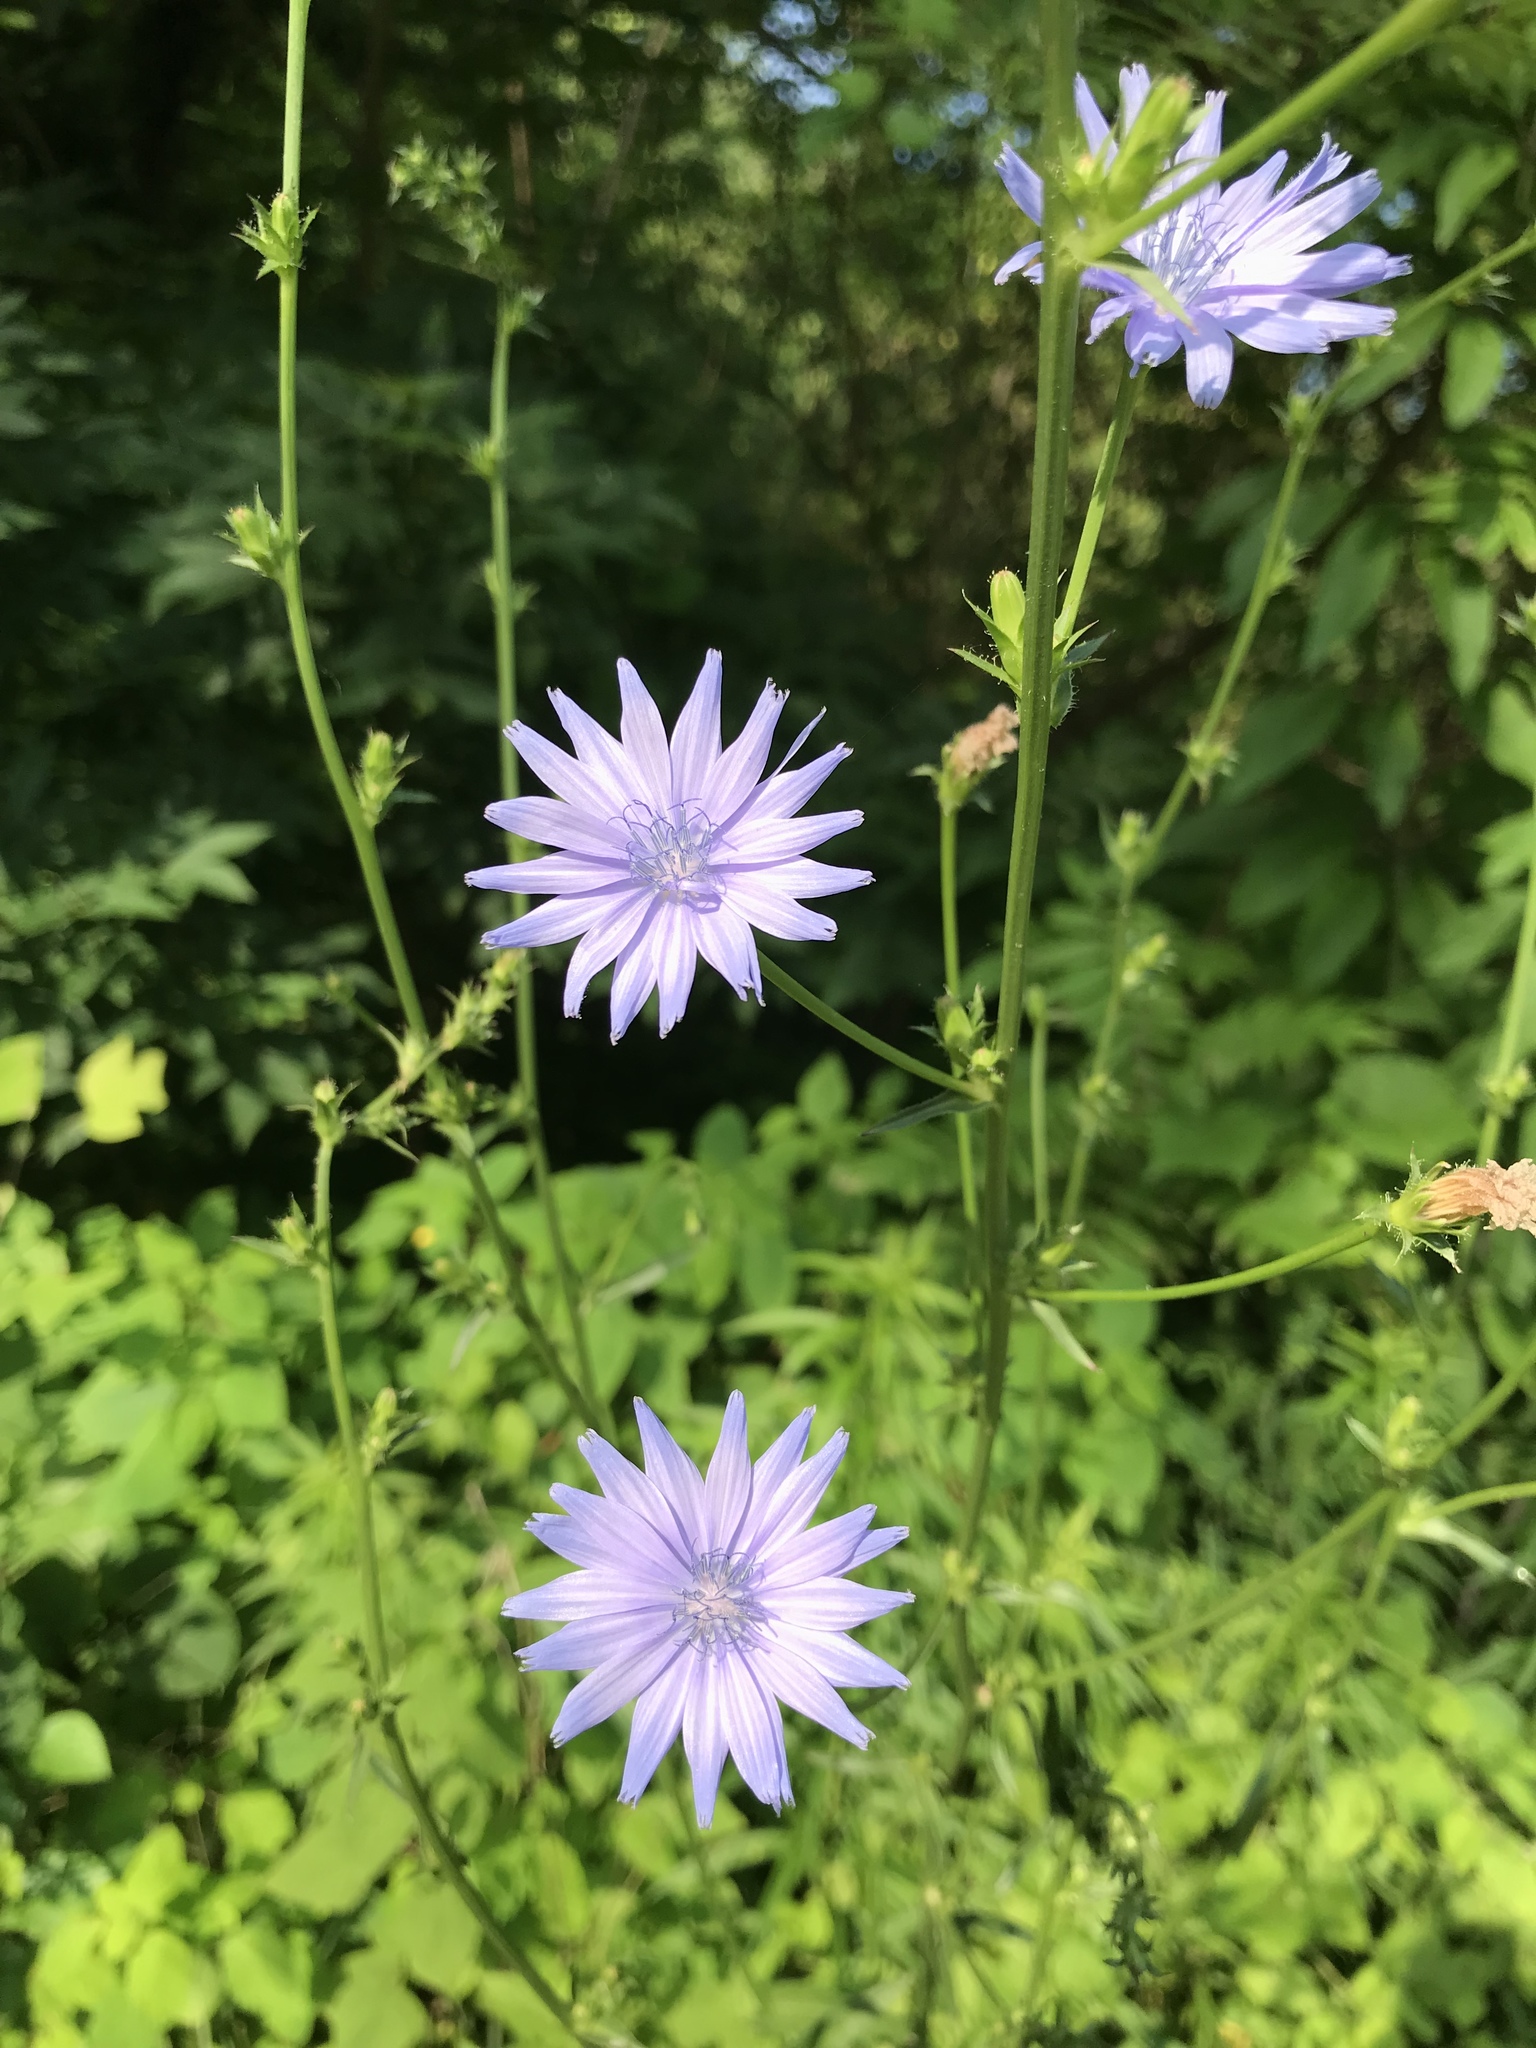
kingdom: Plantae
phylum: Tracheophyta
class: Magnoliopsida
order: Asterales
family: Asteraceae
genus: Cichorium
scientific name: Cichorium intybus
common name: Chicory
